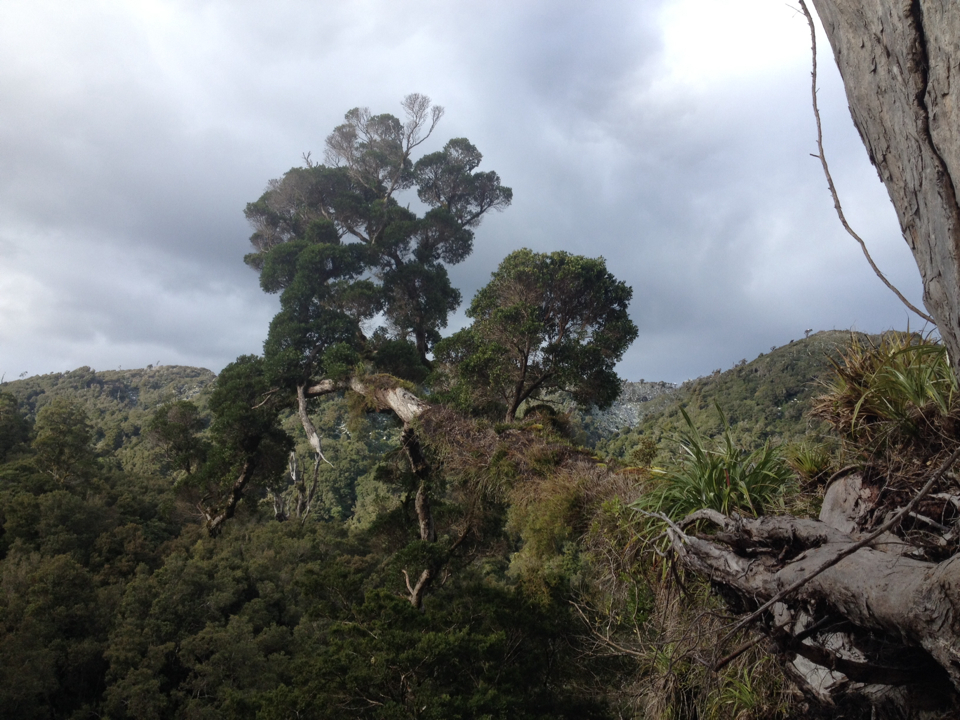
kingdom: Plantae
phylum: Tracheophyta
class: Magnoliopsida
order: Apiales
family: Pittosporaceae
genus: Pittosporum
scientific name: Pittosporum cornifolium
